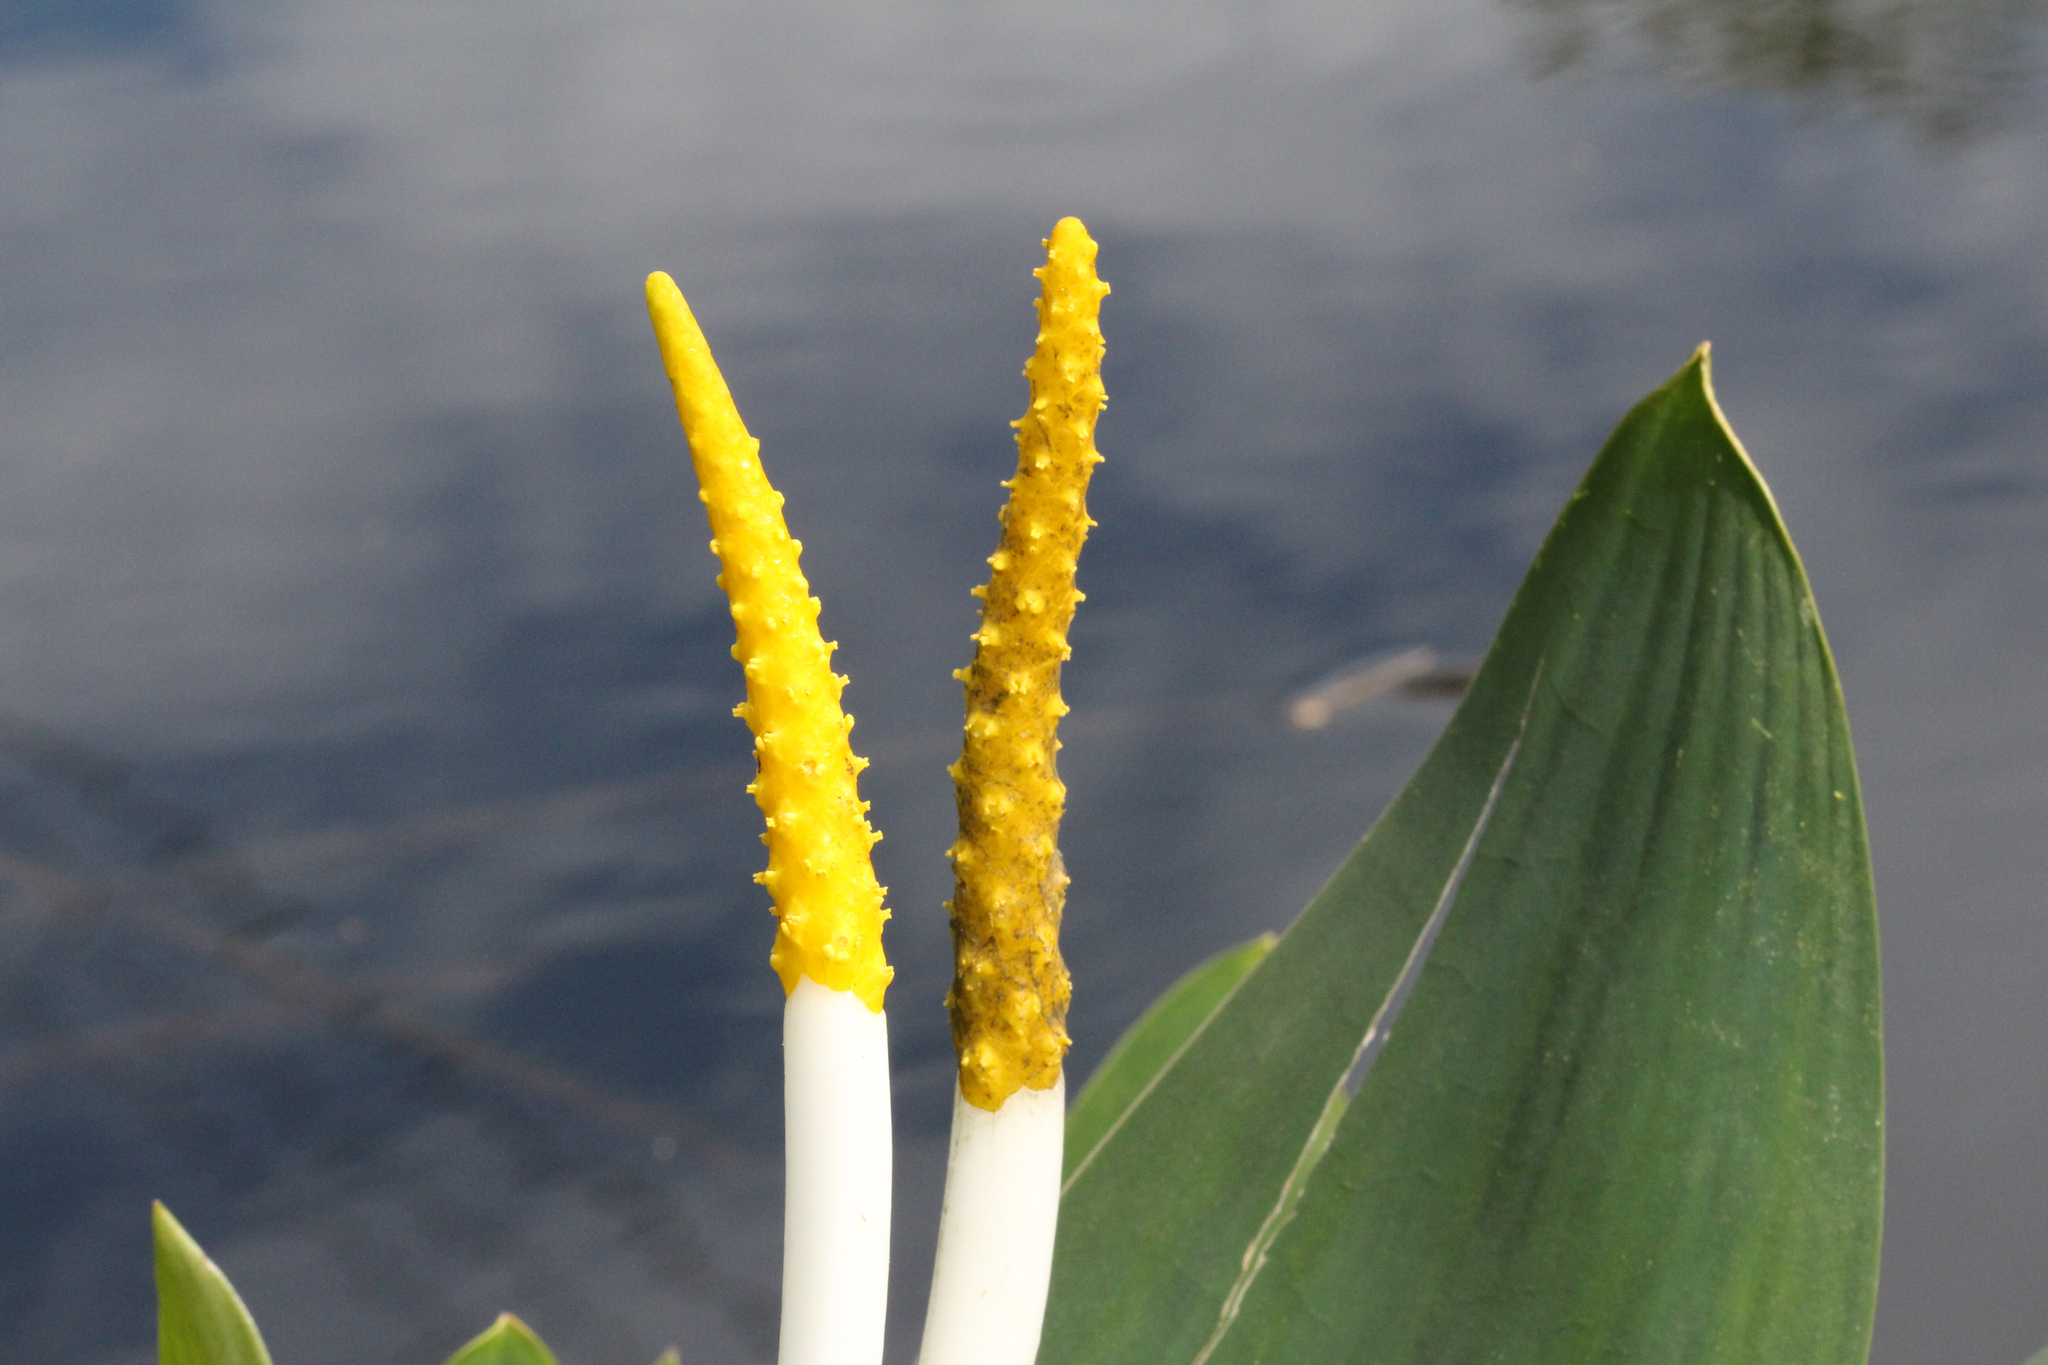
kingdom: Plantae
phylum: Tracheophyta
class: Liliopsida
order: Alismatales
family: Araceae
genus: Orontium
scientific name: Orontium aquaticum
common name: Golden-club
